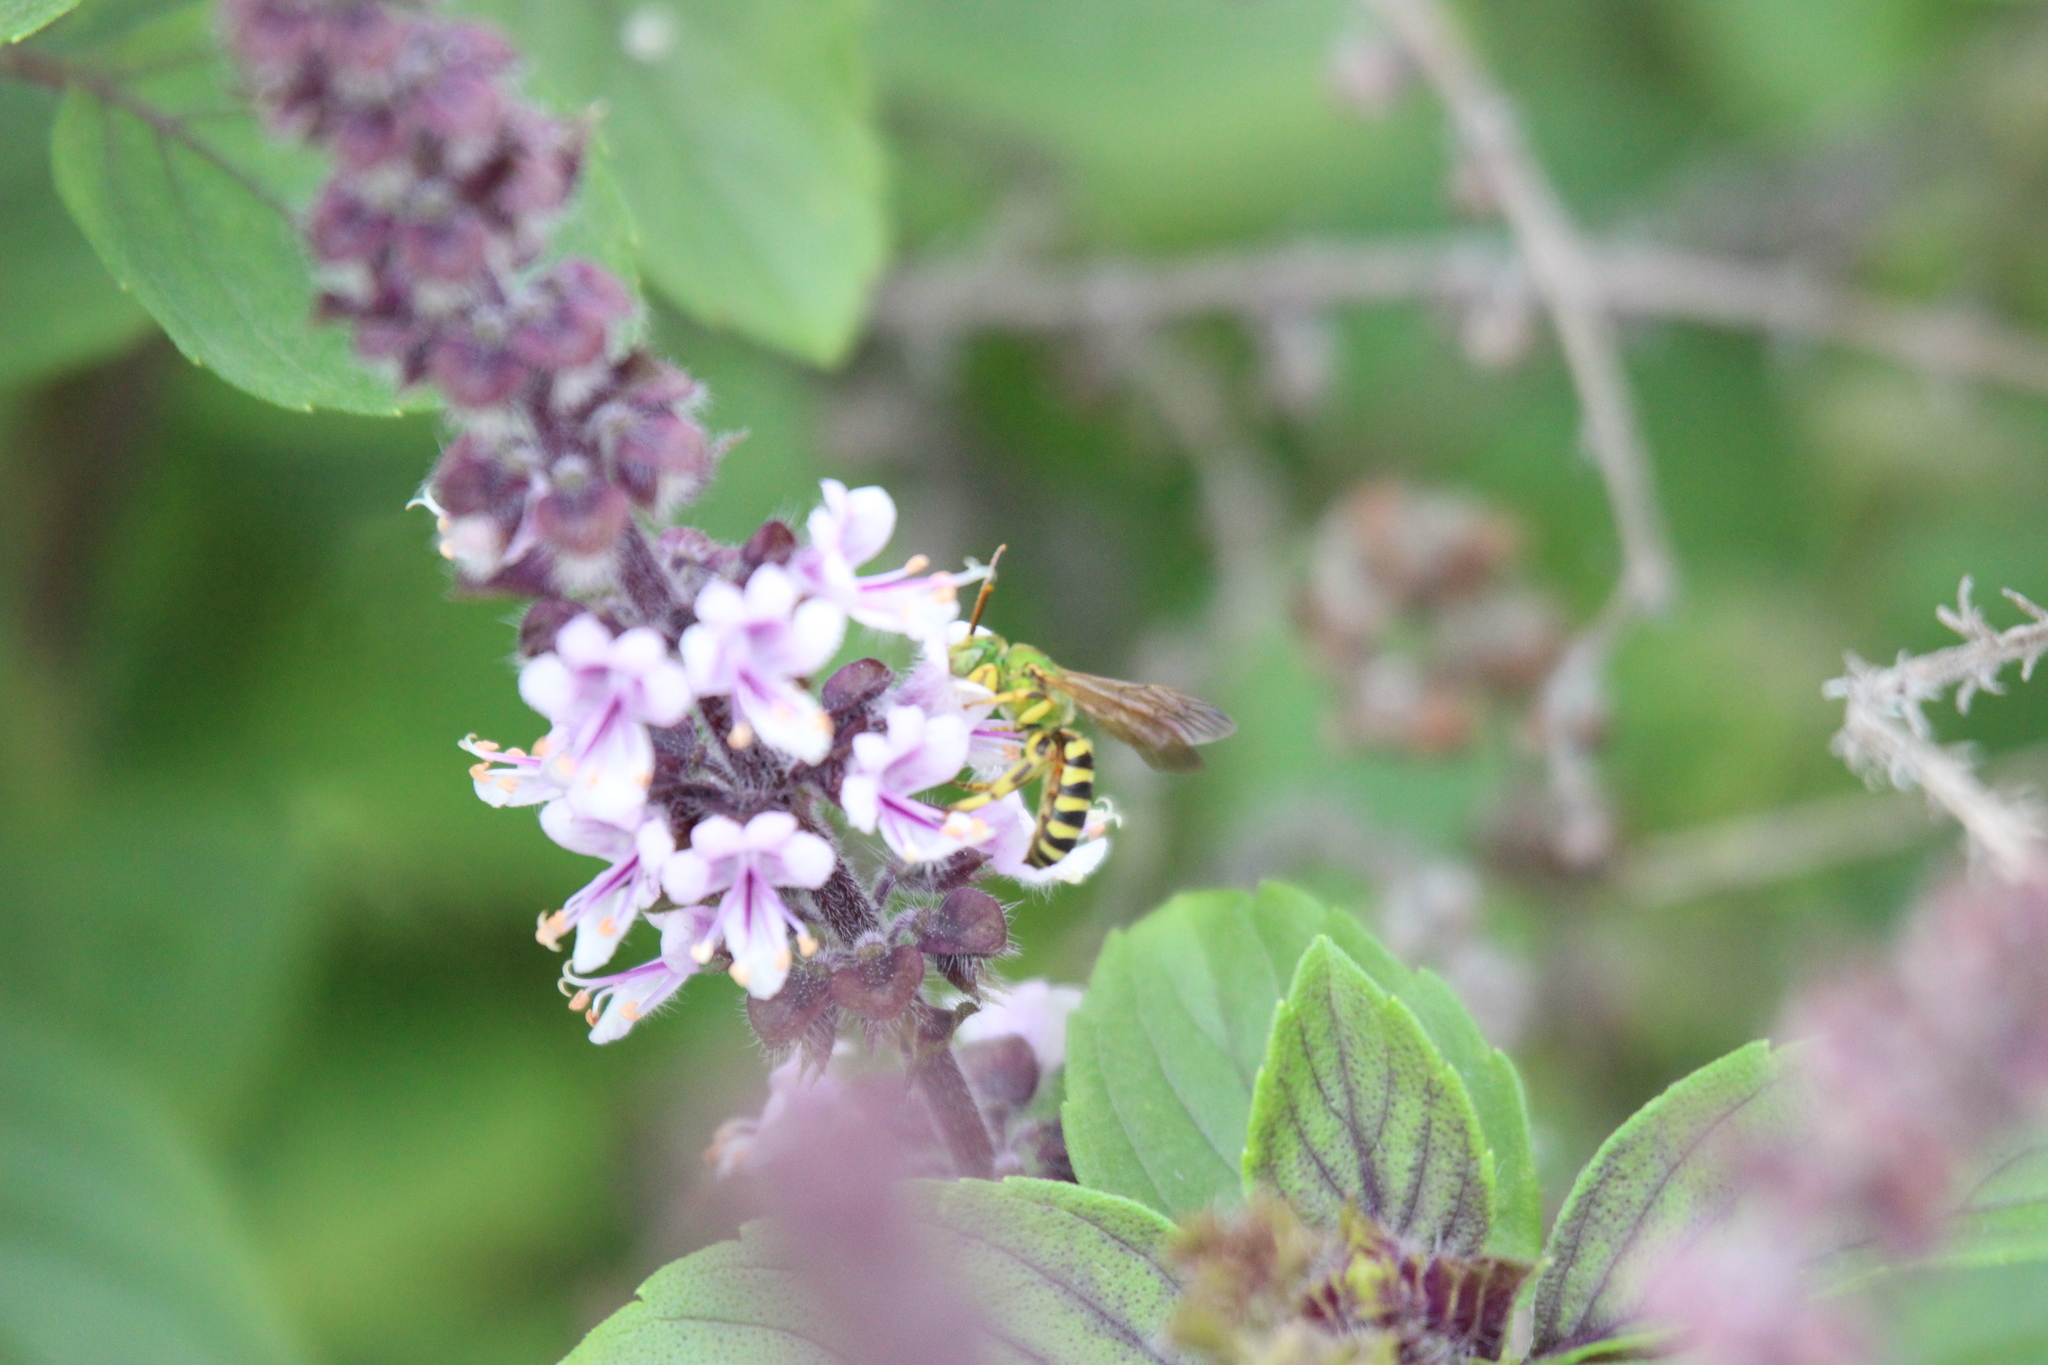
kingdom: Animalia
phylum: Arthropoda
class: Insecta
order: Hymenoptera
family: Halictidae
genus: Agapostemon
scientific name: Agapostemon splendens
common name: Brown-winged striped sweat bee
